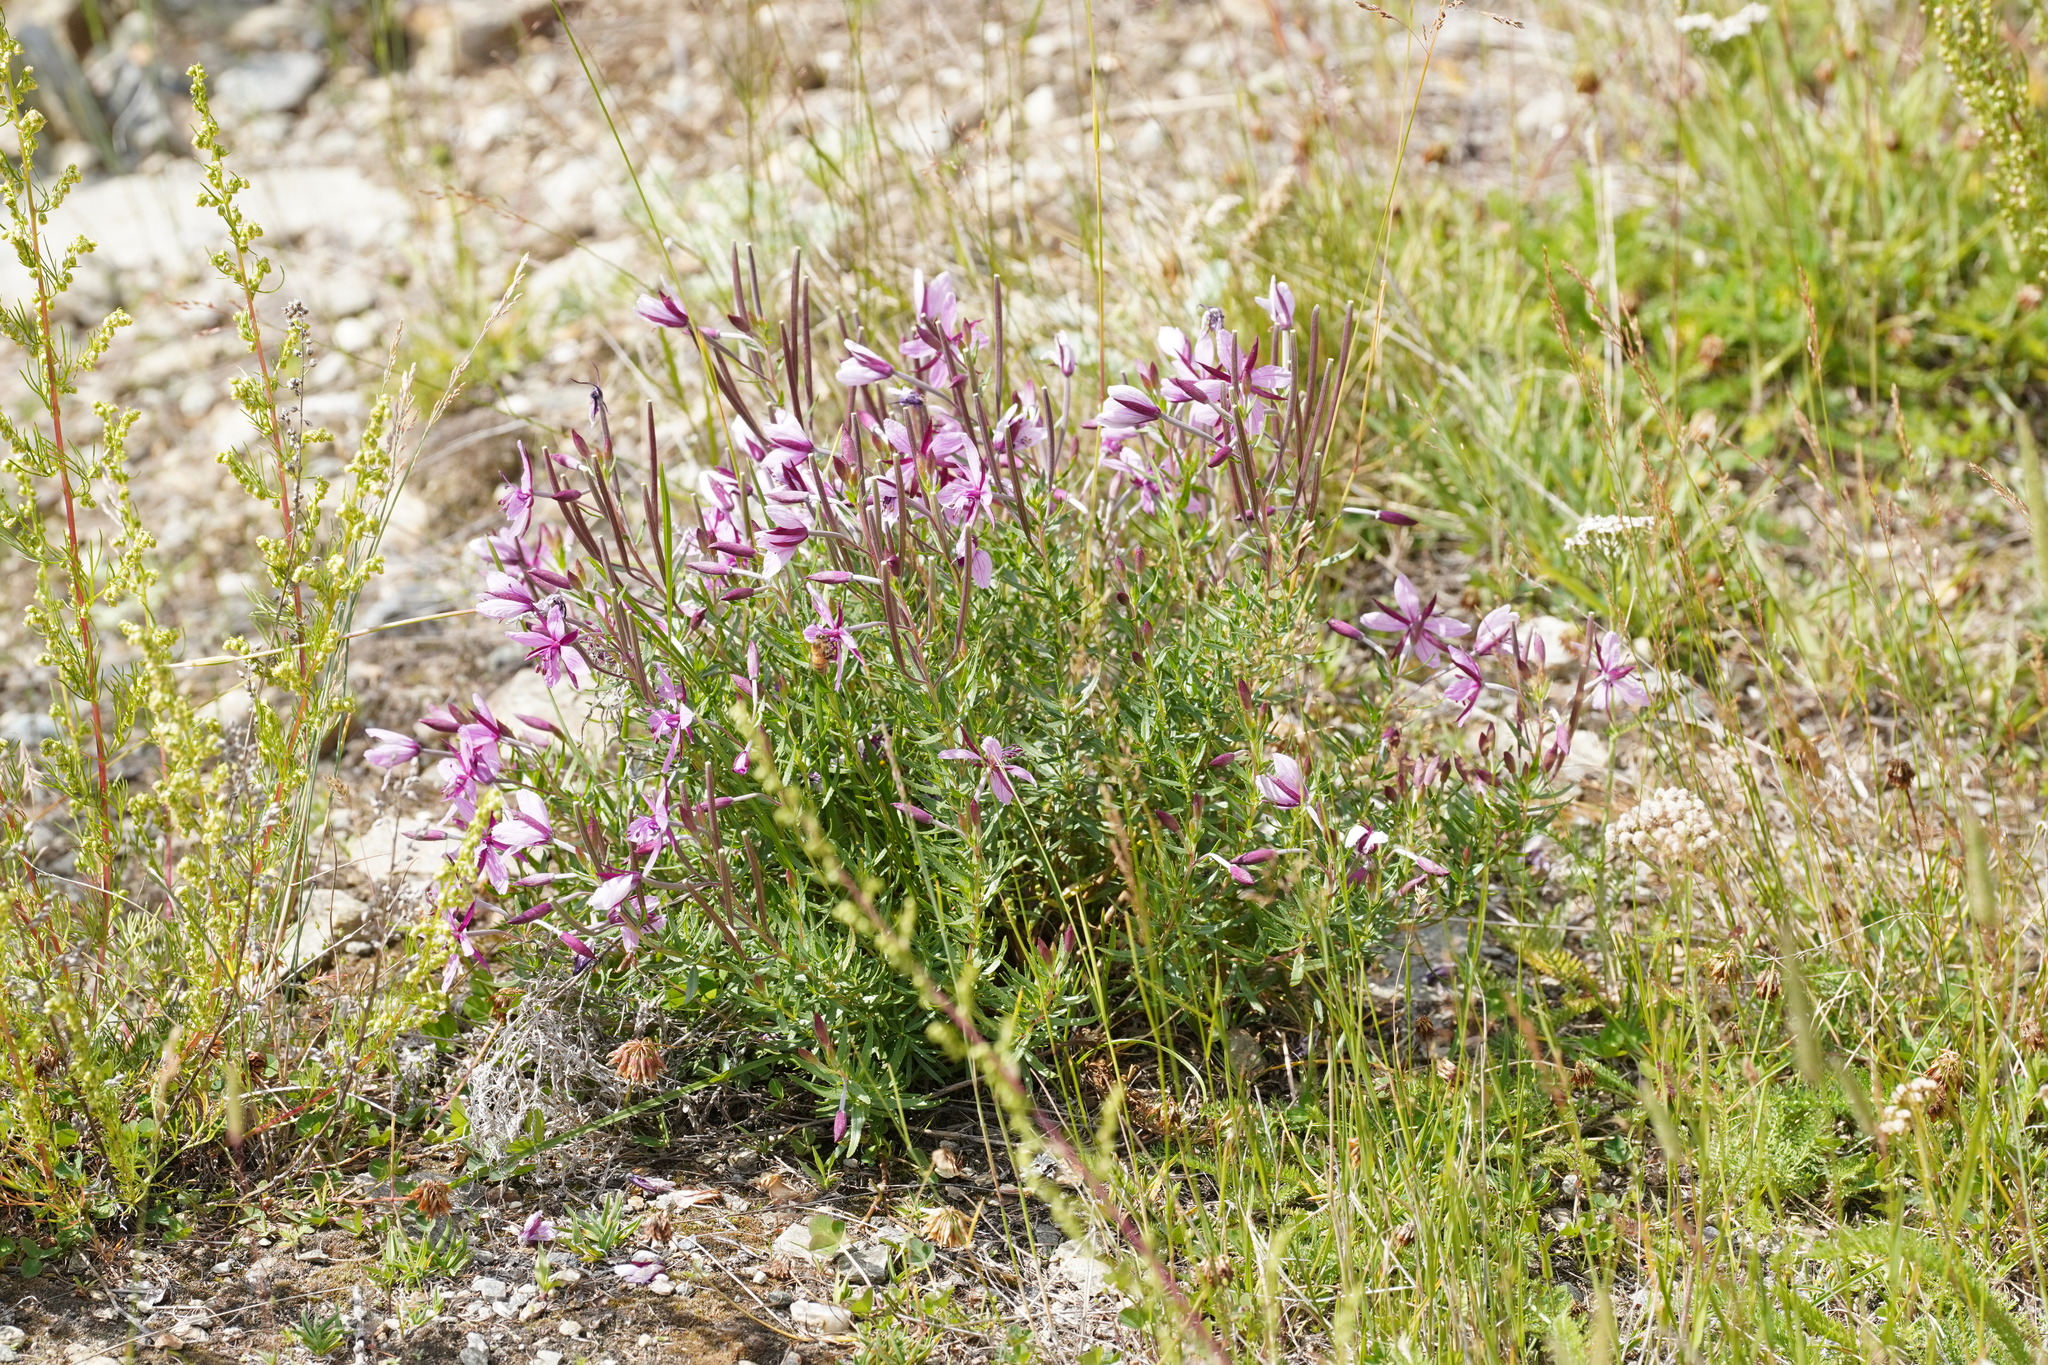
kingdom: Plantae
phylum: Tracheophyta
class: Magnoliopsida
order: Myrtales
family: Onagraceae
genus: Chamaenerion
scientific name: Chamaenerion fleischeri
